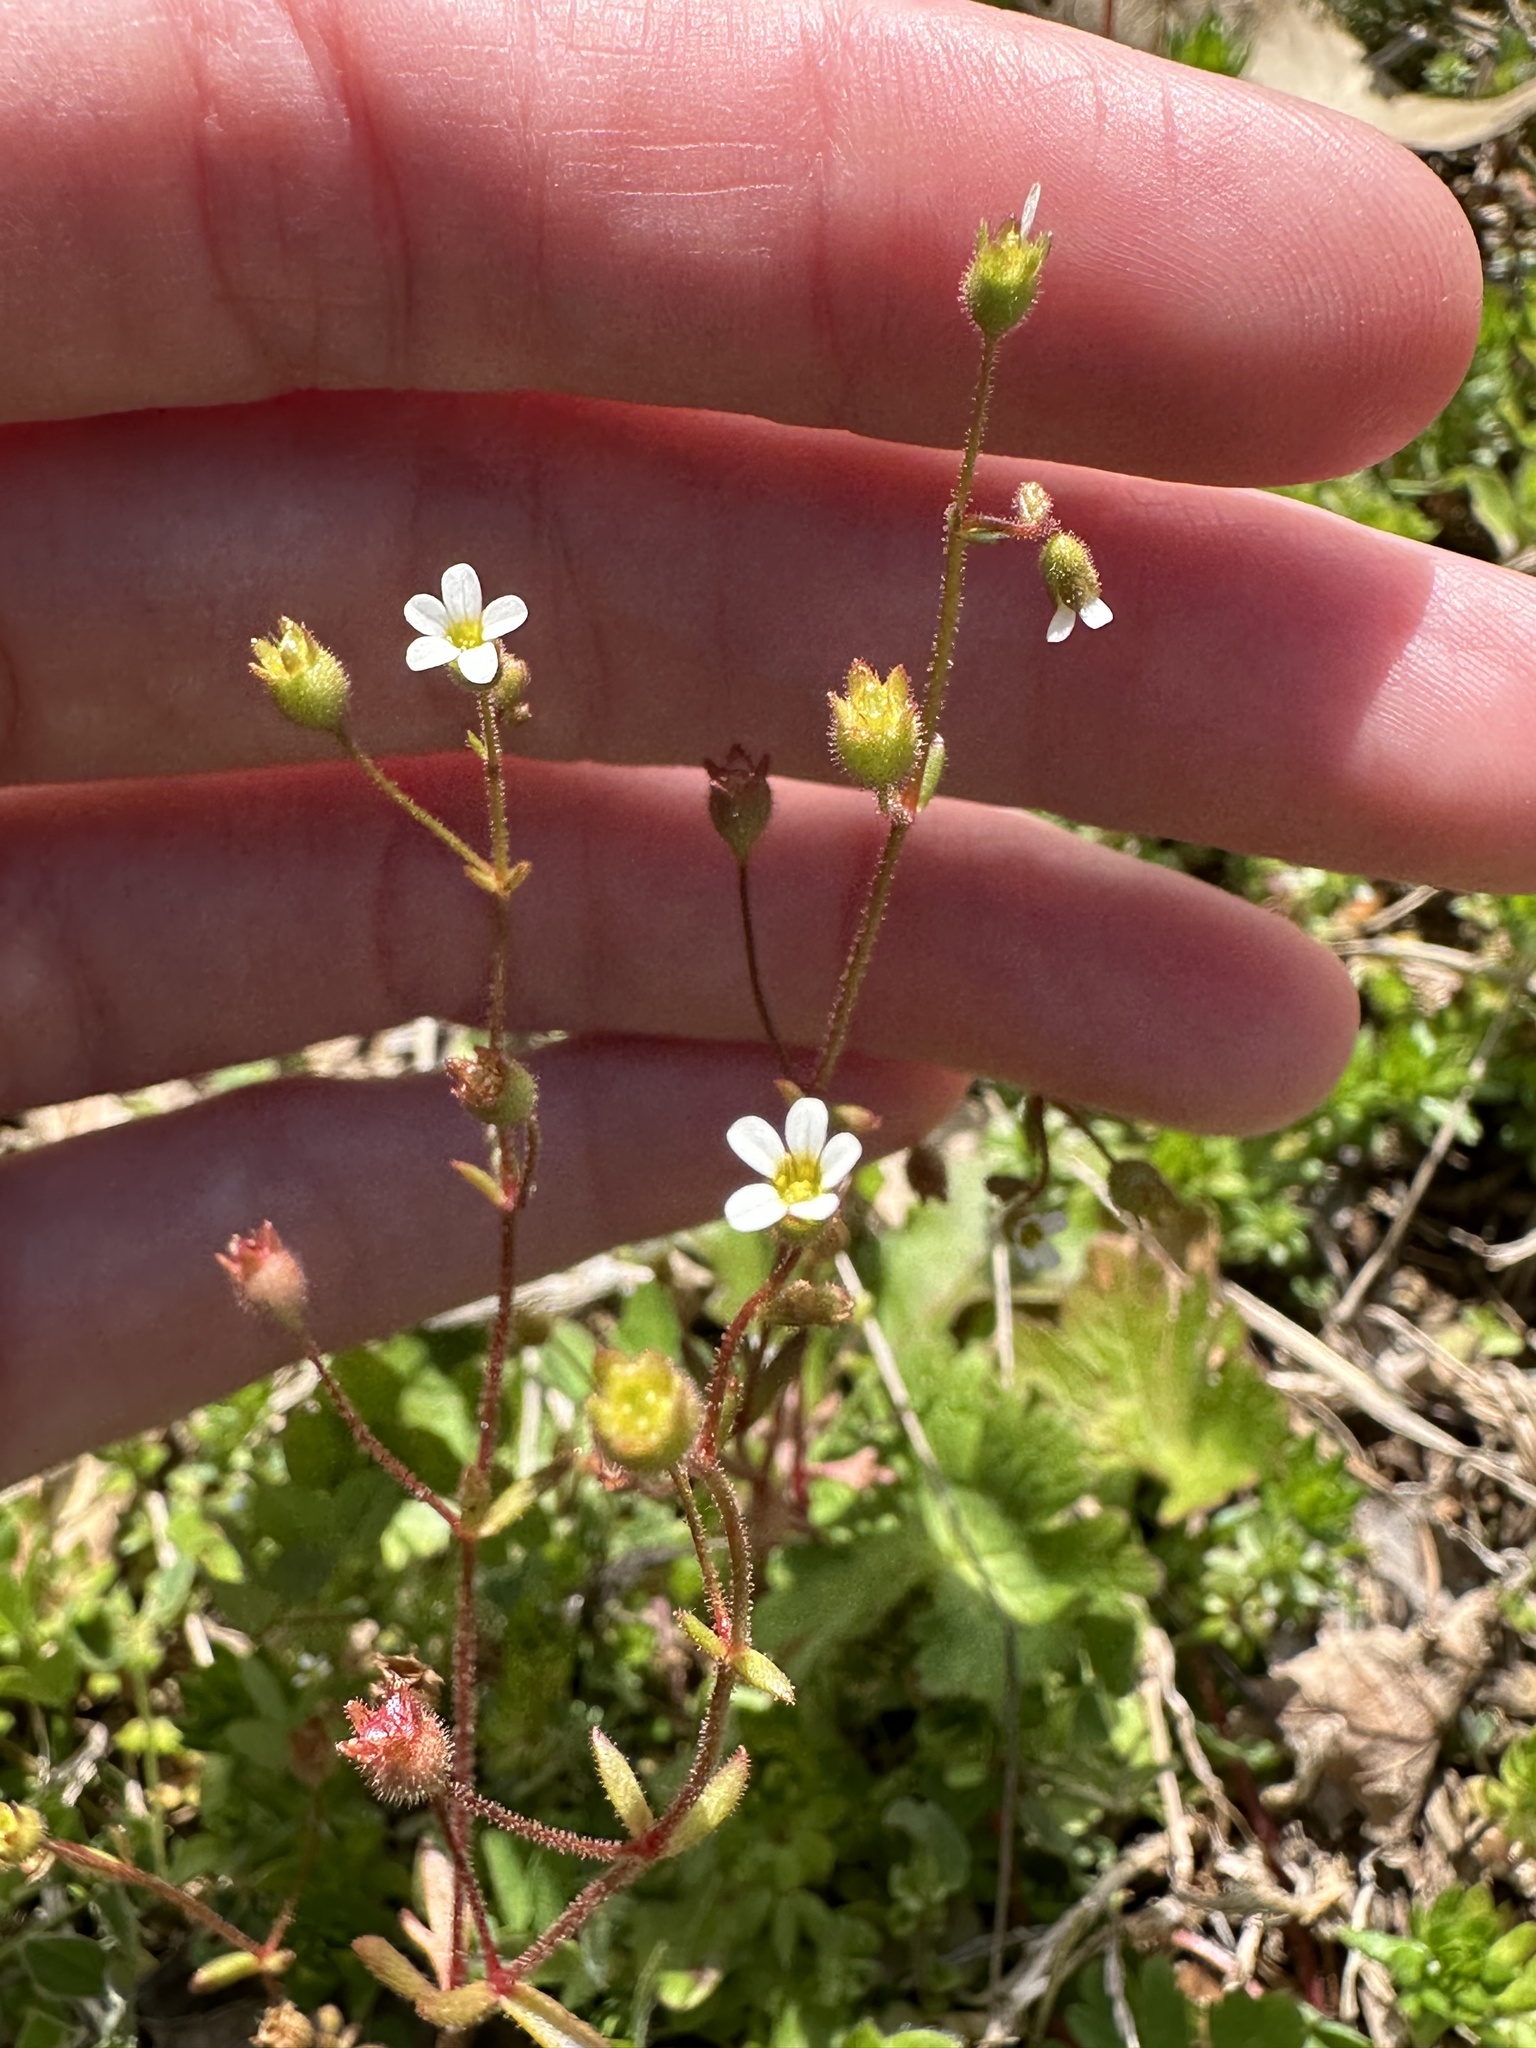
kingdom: Plantae
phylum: Tracheophyta
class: Magnoliopsida
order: Saxifragales
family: Saxifragaceae
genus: Saxifraga
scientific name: Saxifraga tridactylites
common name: Rue-leaved saxifrage
